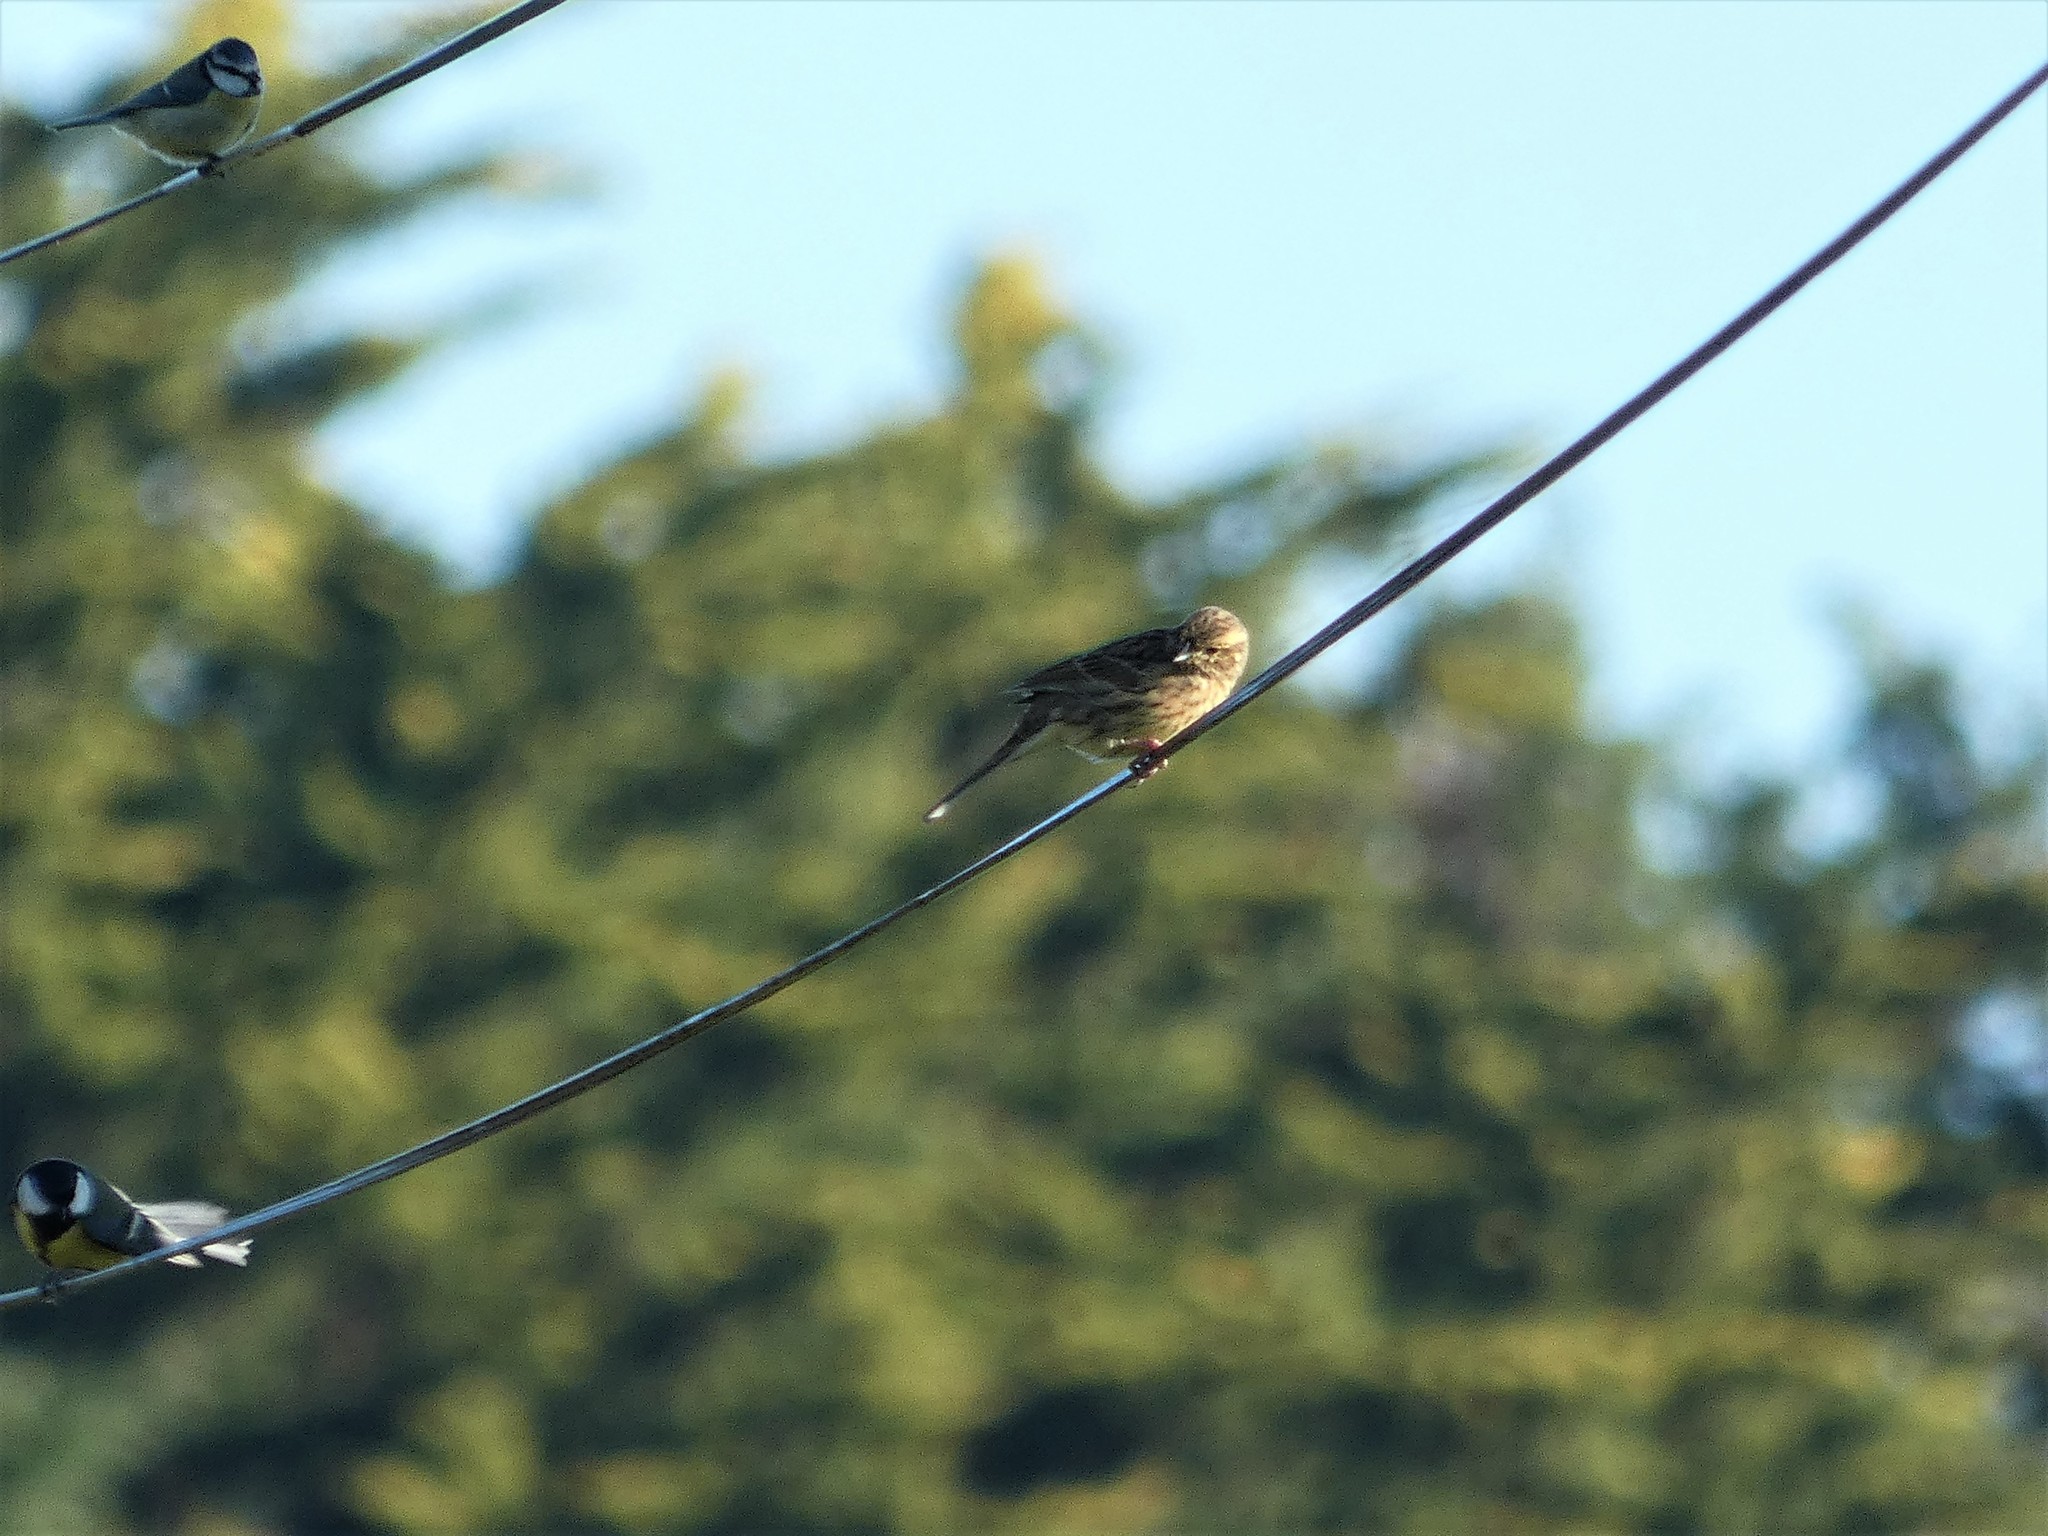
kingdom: Animalia
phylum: Chordata
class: Aves
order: Passeriformes
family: Paridae
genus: Cyanistes
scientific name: Cyanistes caeruleus
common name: Eurasian blue tit
